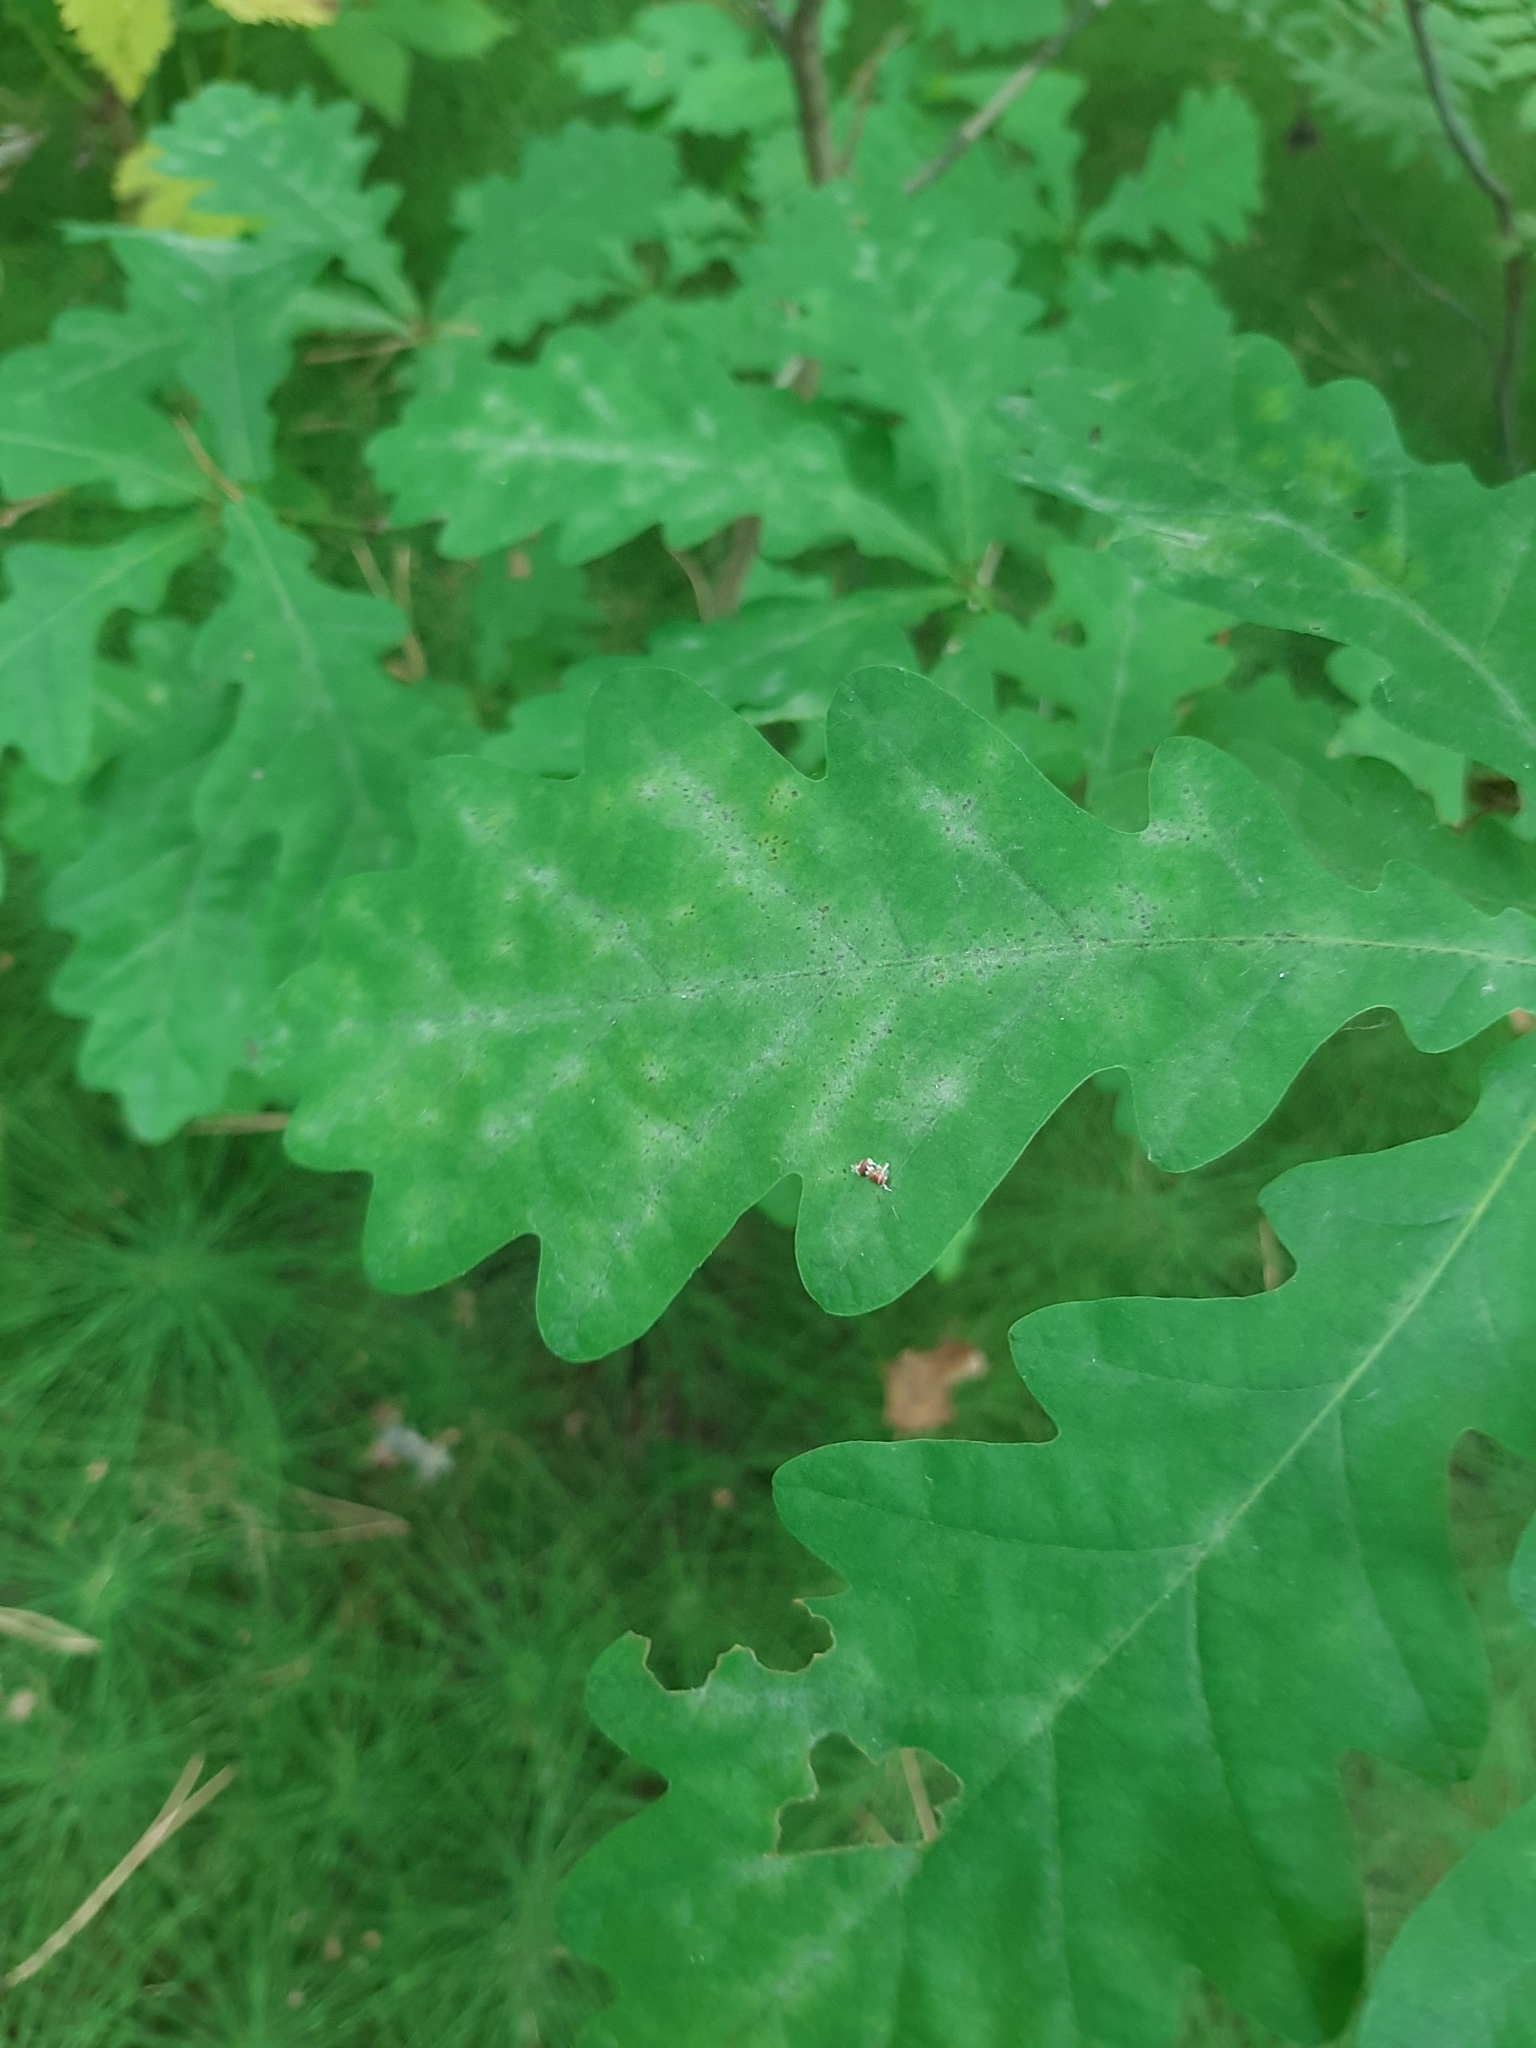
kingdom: Plantae
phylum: Tracheophyta
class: Magnoliopsida
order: Fagales
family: Fagaceae
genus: Quercus
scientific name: Quercus robur
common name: Pedunculate oak
